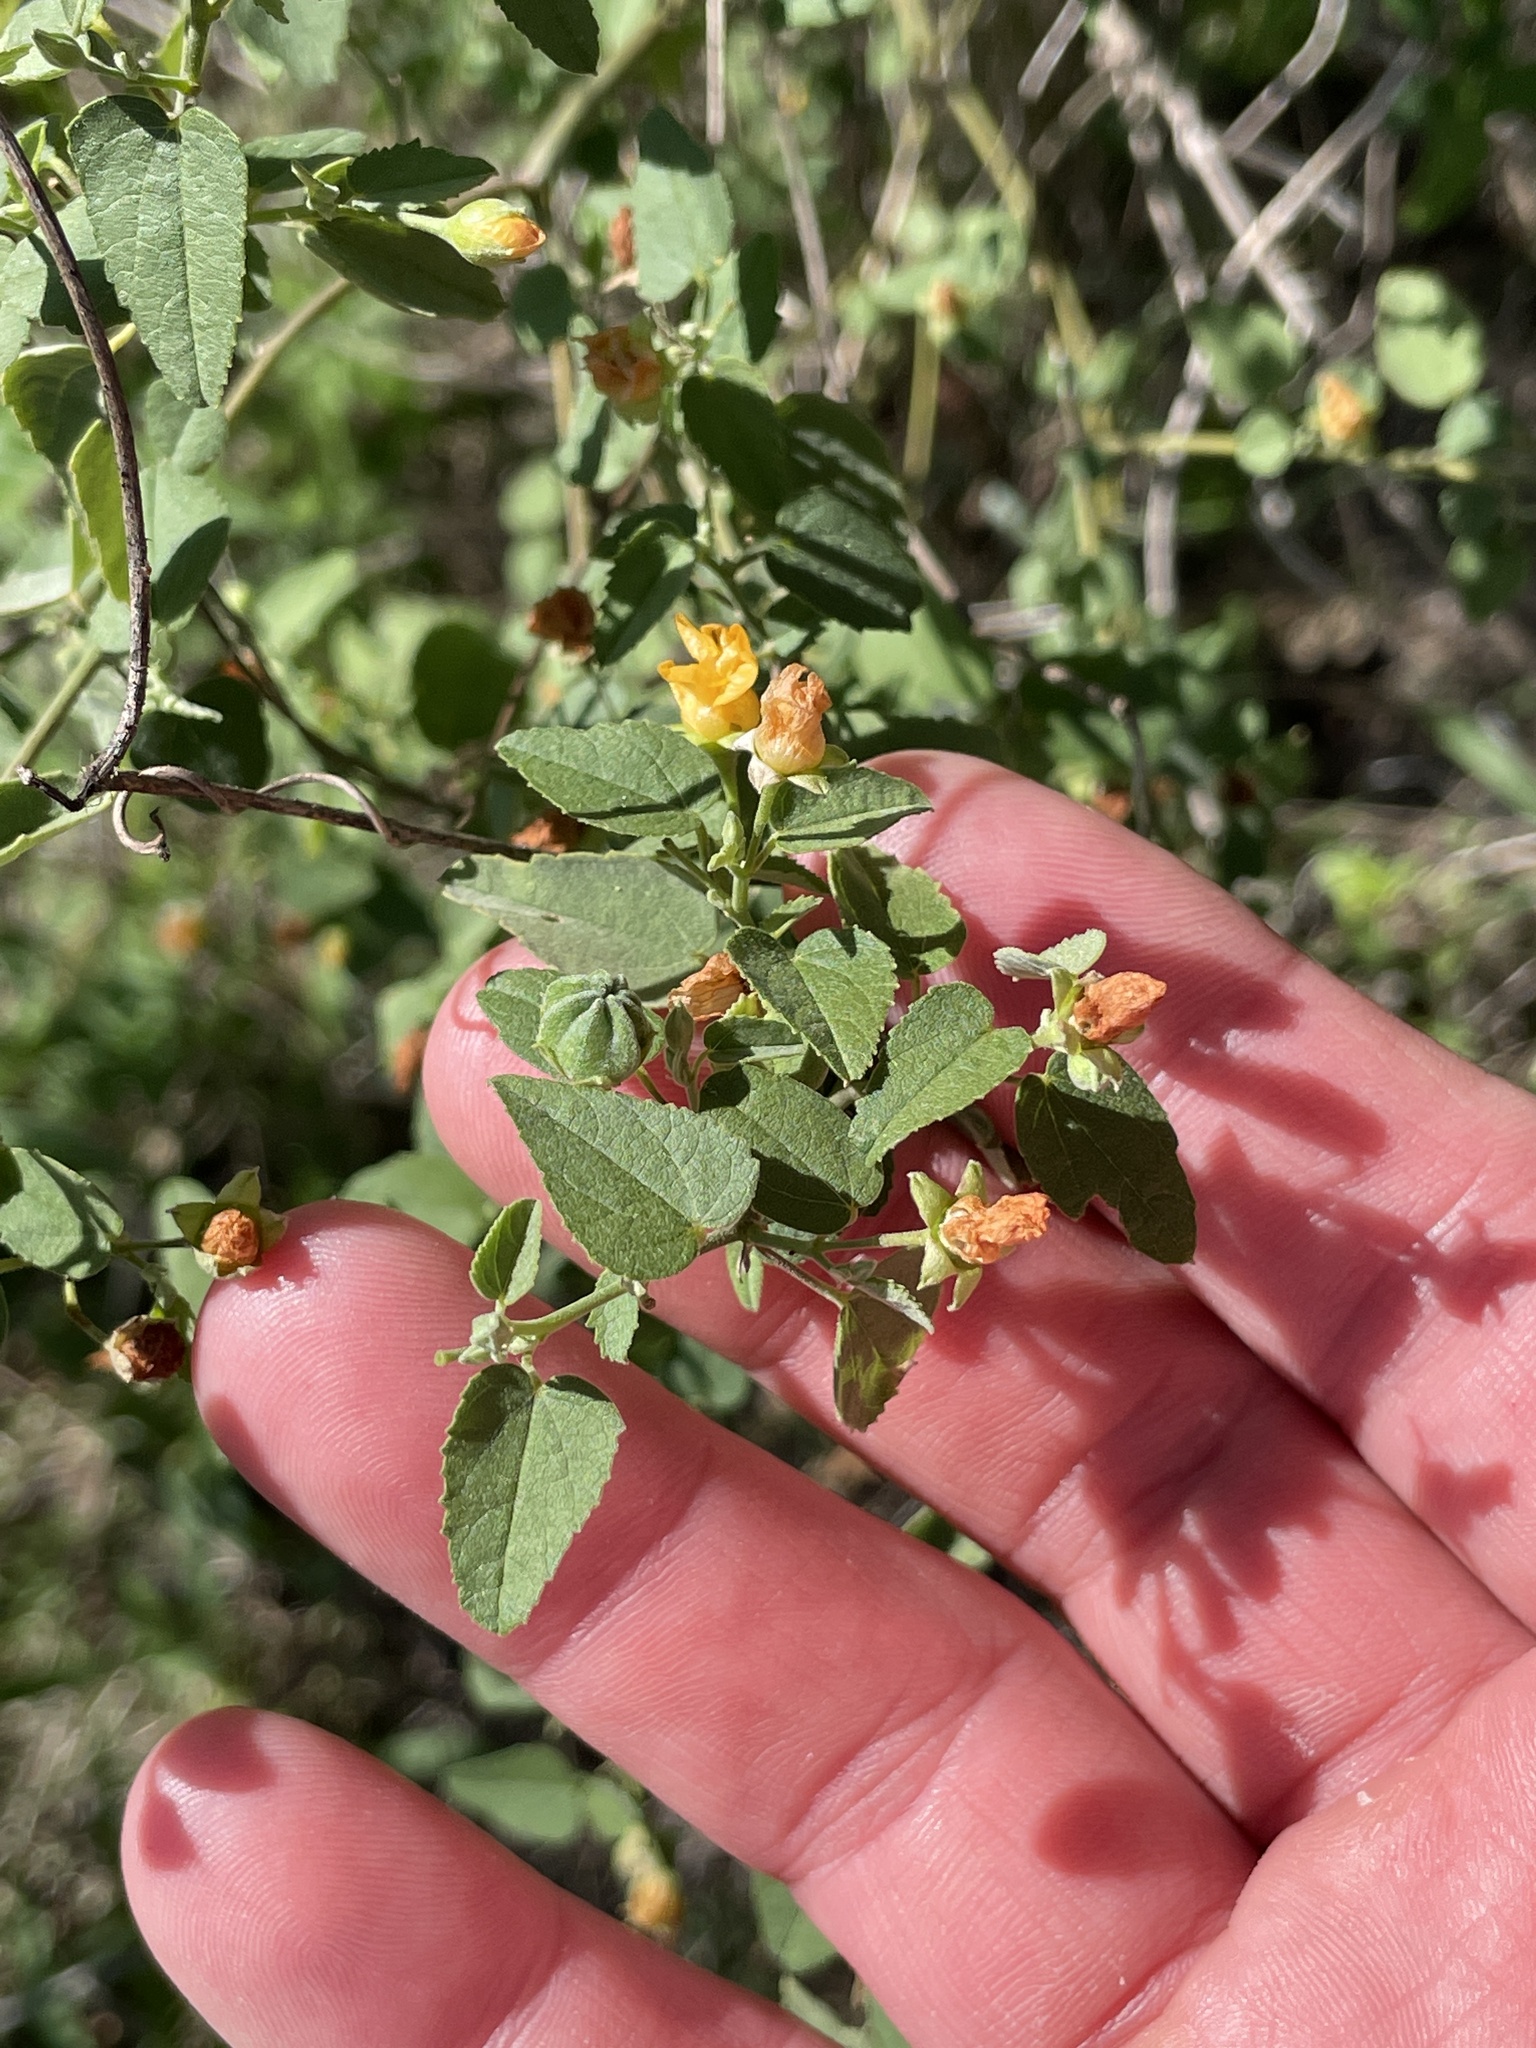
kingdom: Plantae
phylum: Tracheophyta
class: Magnoliopsida
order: Malvales
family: Malvaceae
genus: Abutilon
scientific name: Abutilon fruticosum
